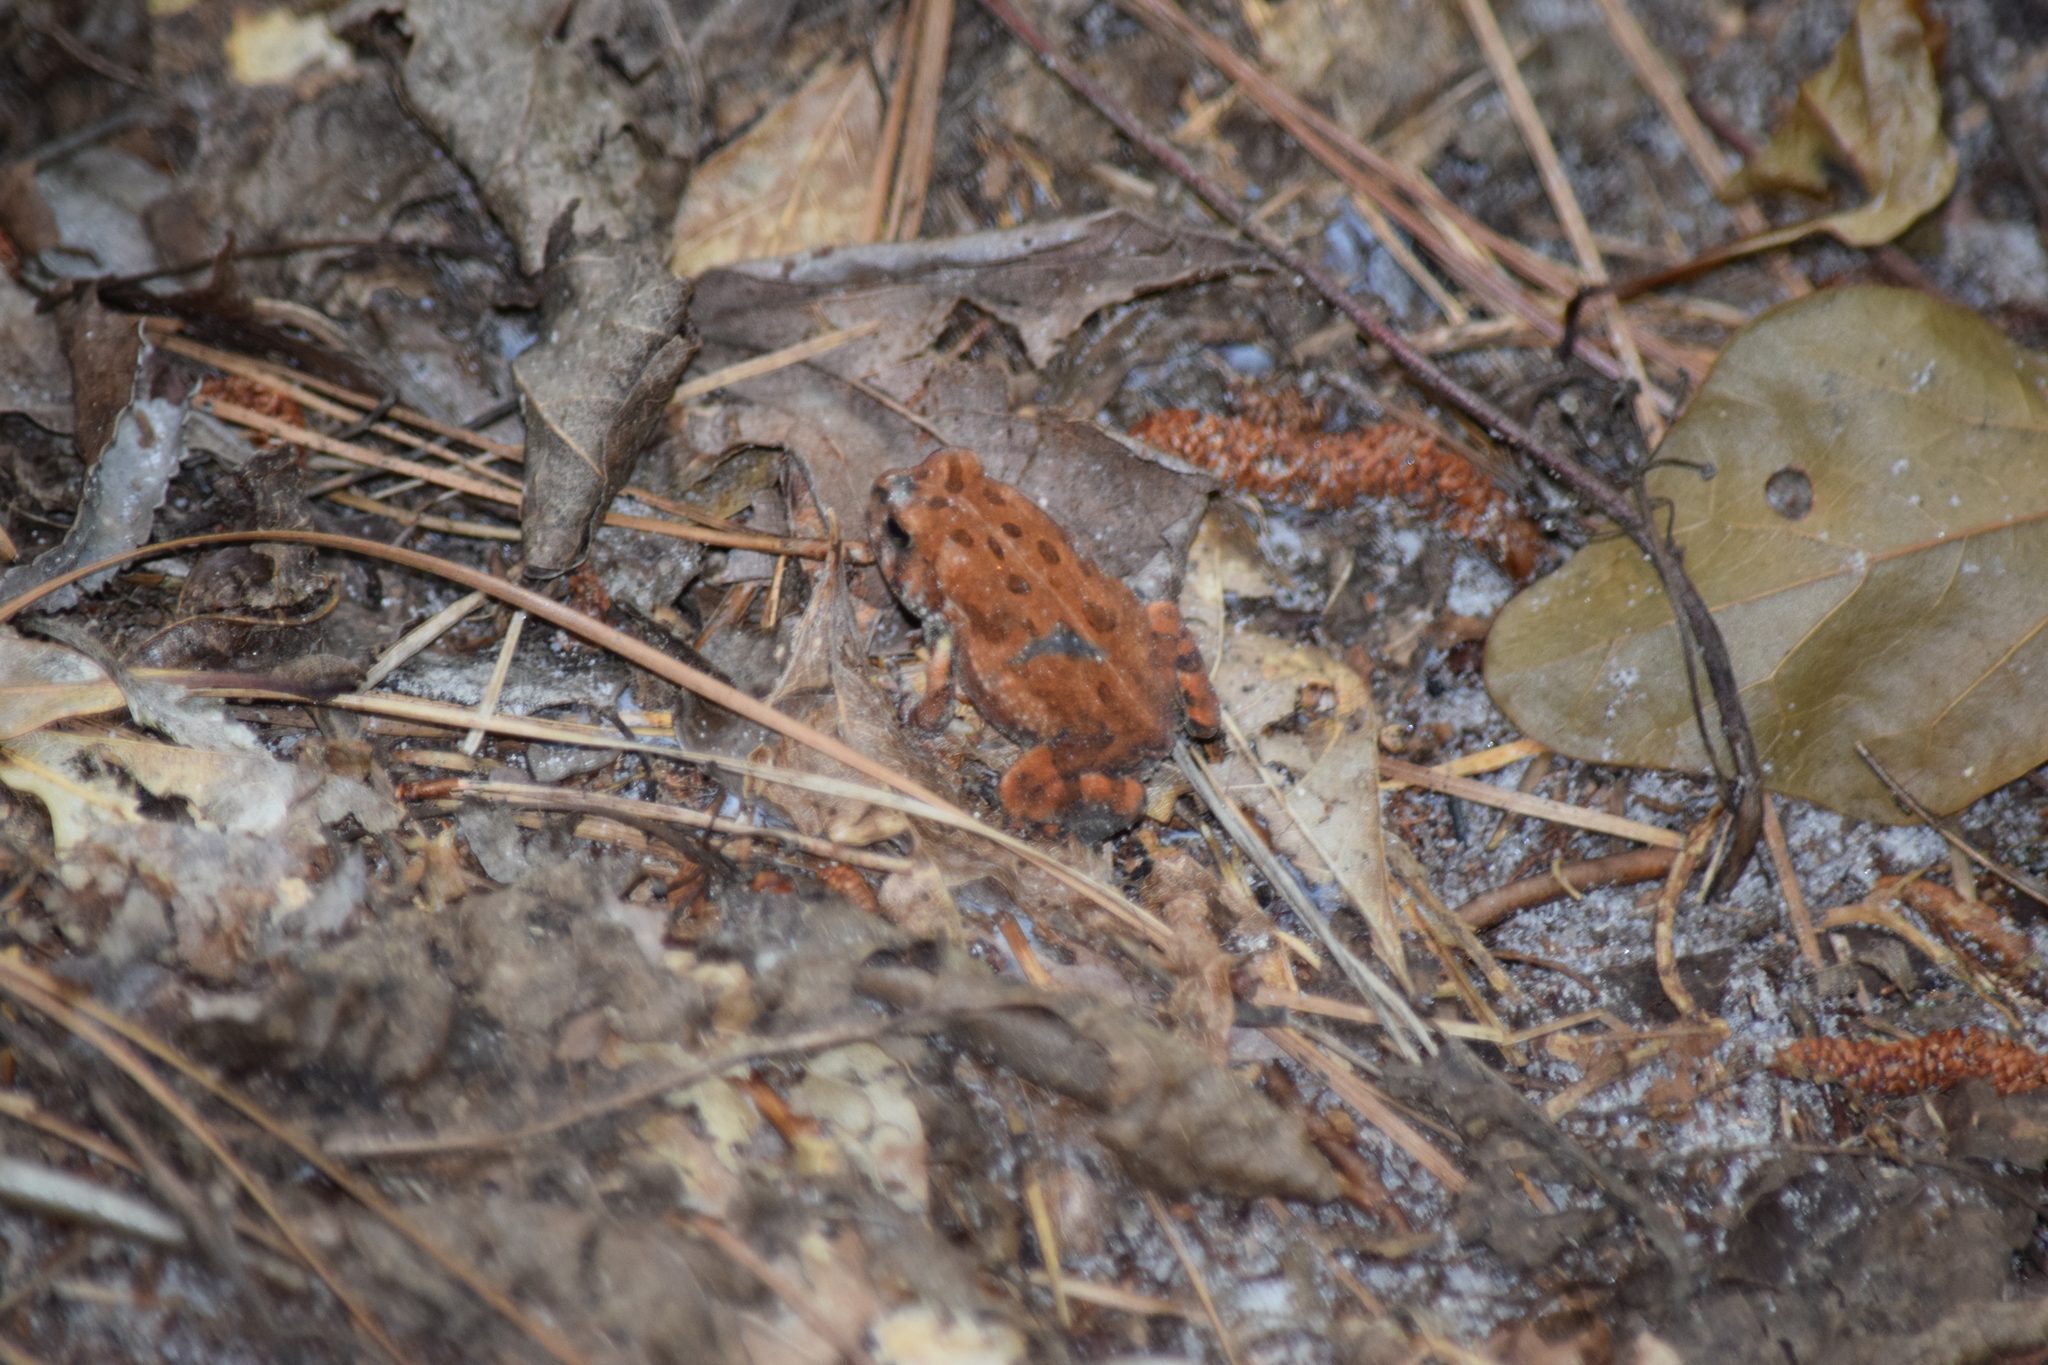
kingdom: Animalia
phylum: Chordata
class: Amphibia
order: Anura
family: Bufonidae
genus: Anaxyrus
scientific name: Anaxyrus fowleri
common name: Fowler's toad
